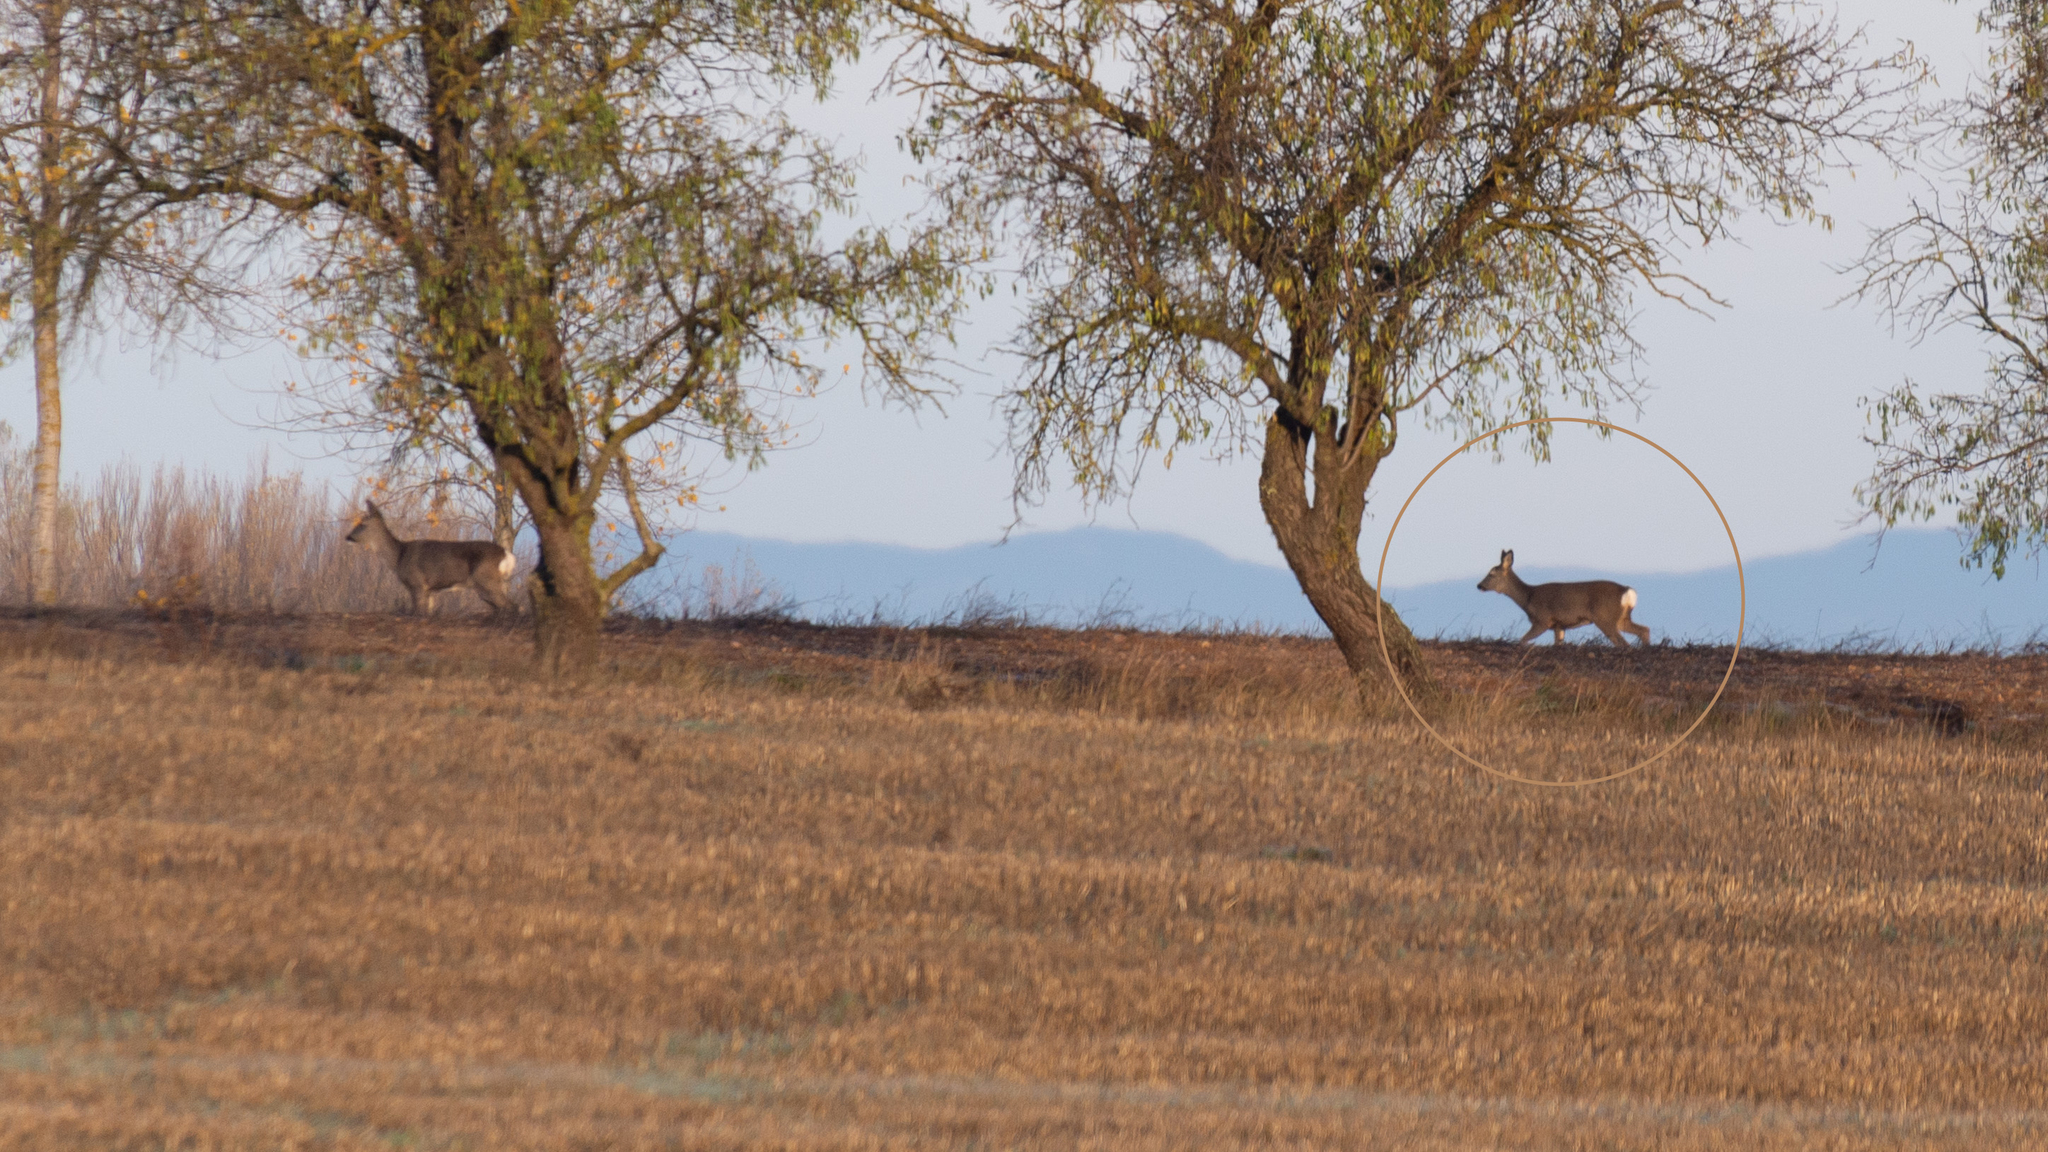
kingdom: Animalia
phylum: Chordata
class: Mammalia
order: Artiodactyla
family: Cervidae
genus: Capreolus
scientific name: Capreolus capreolus
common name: Western roe deer
